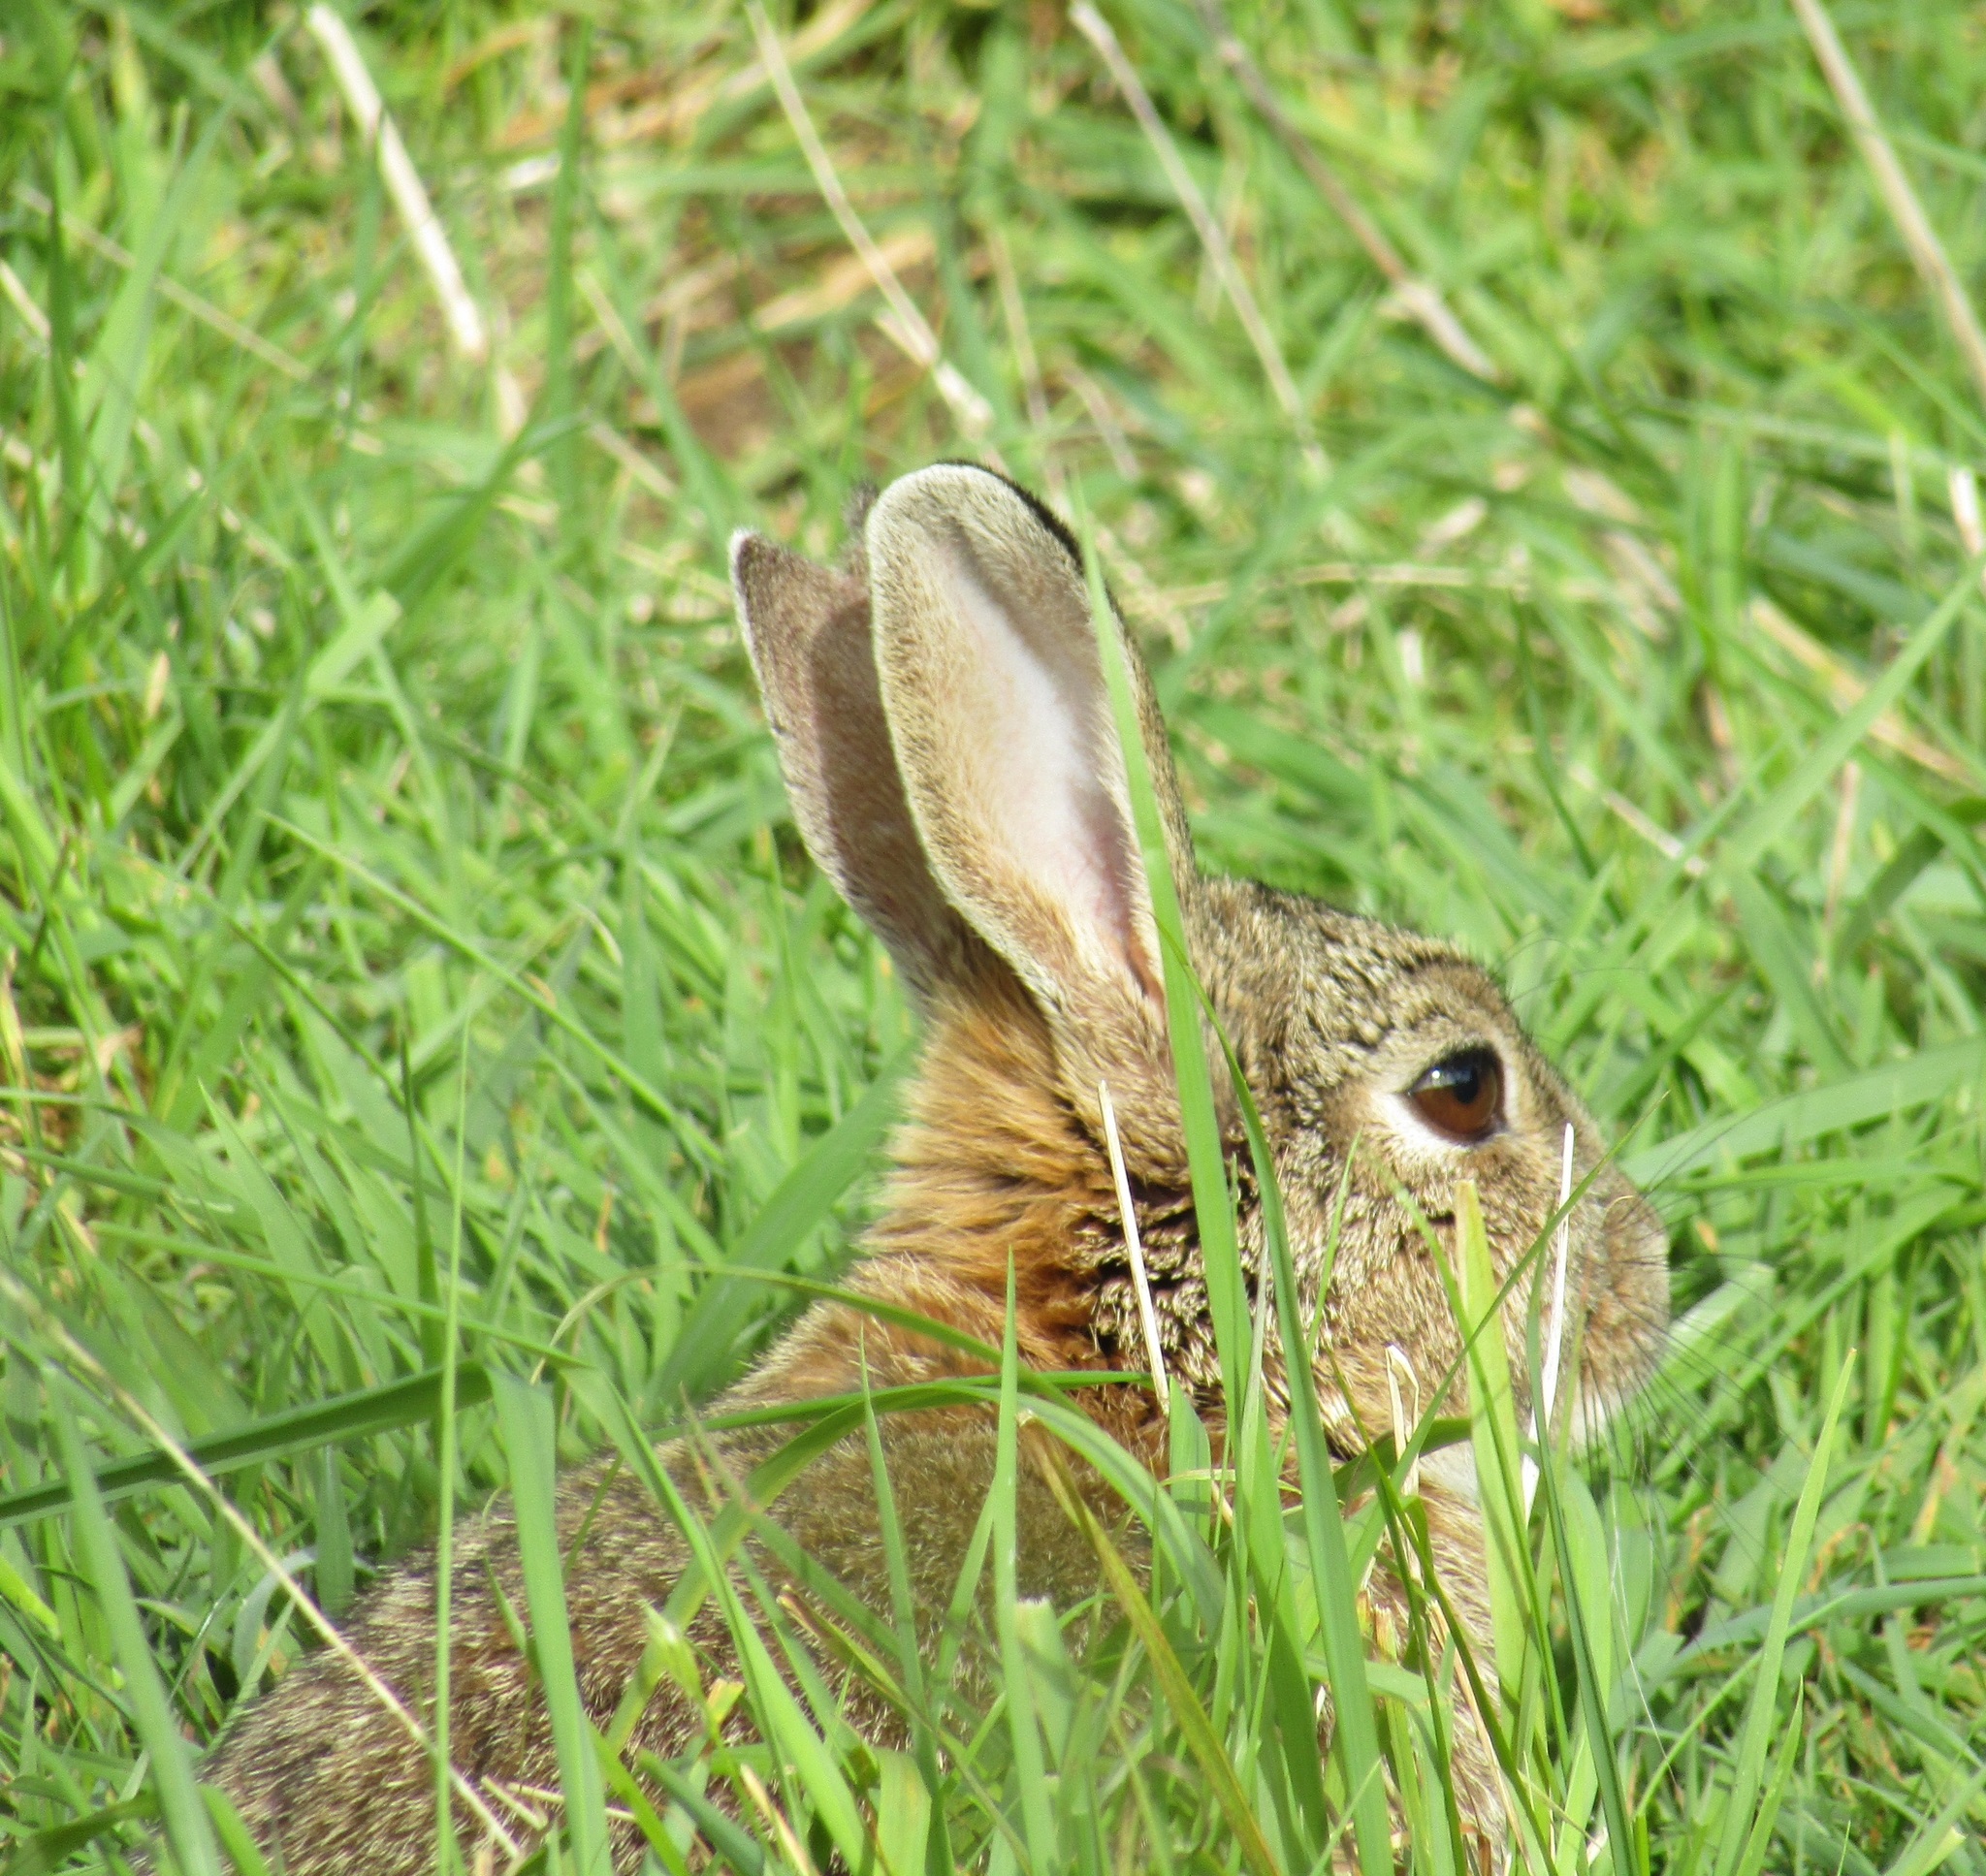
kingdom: Animalia
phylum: Chordata
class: Mammalia
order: Lagomorpha
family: Leporidae
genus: Oryctolagus
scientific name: Oryctolagus cuniculus
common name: European rabbit
